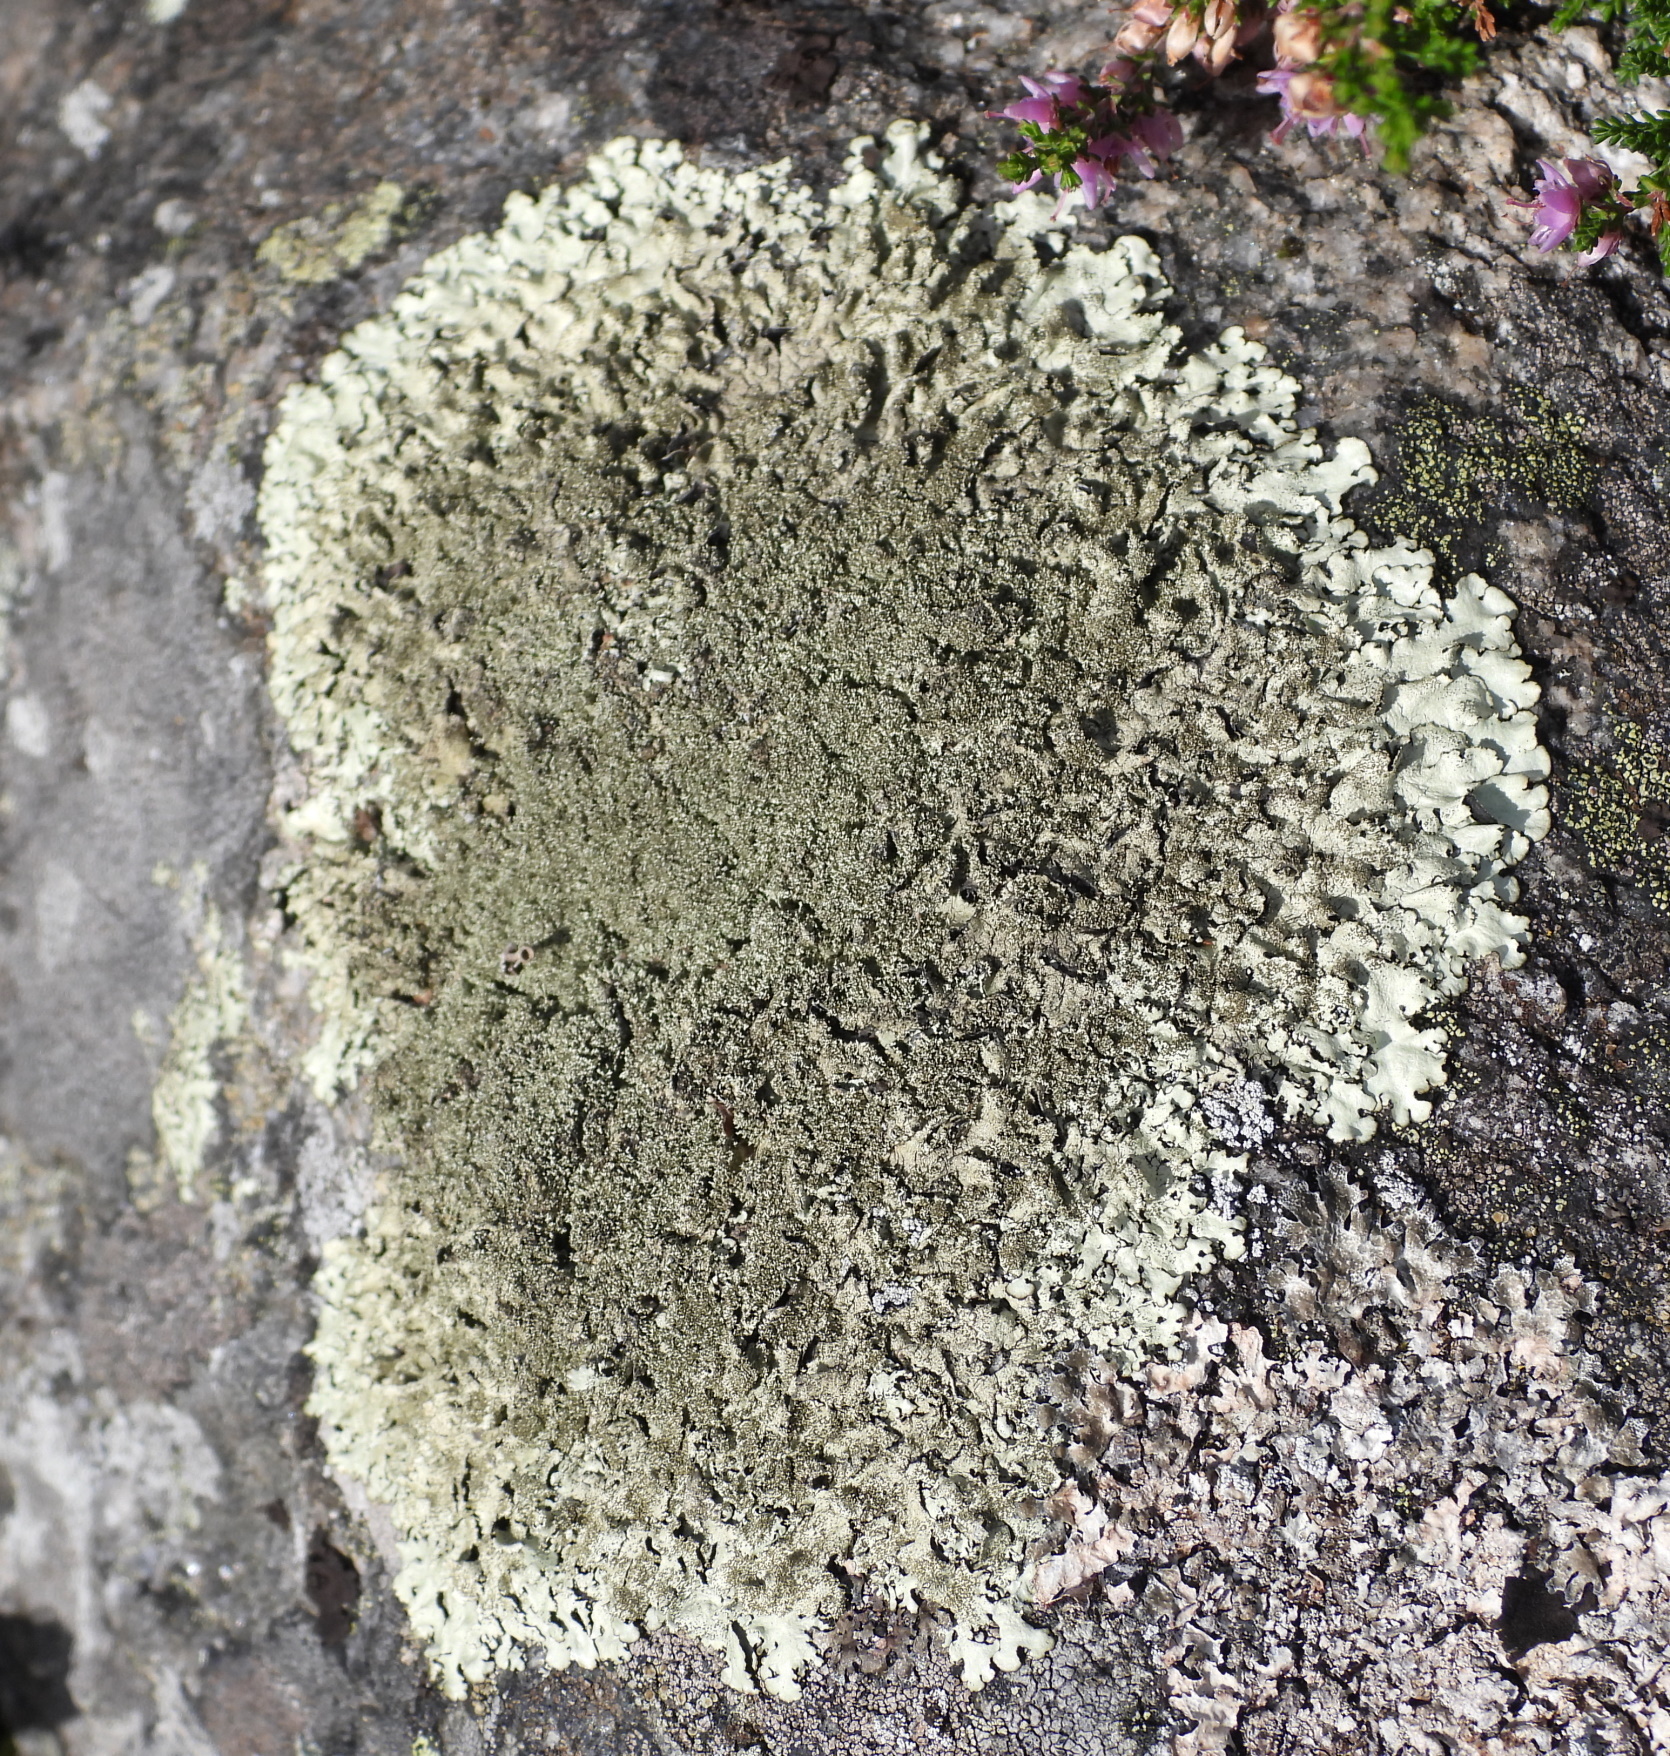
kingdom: Fungi
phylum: Ascomycota
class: Lecanoromycetes
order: Lecanorales
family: Parmeliaceae
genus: Xanthoparmelia
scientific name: Xanthoparmelia conspersa
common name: Peppered rock shield
